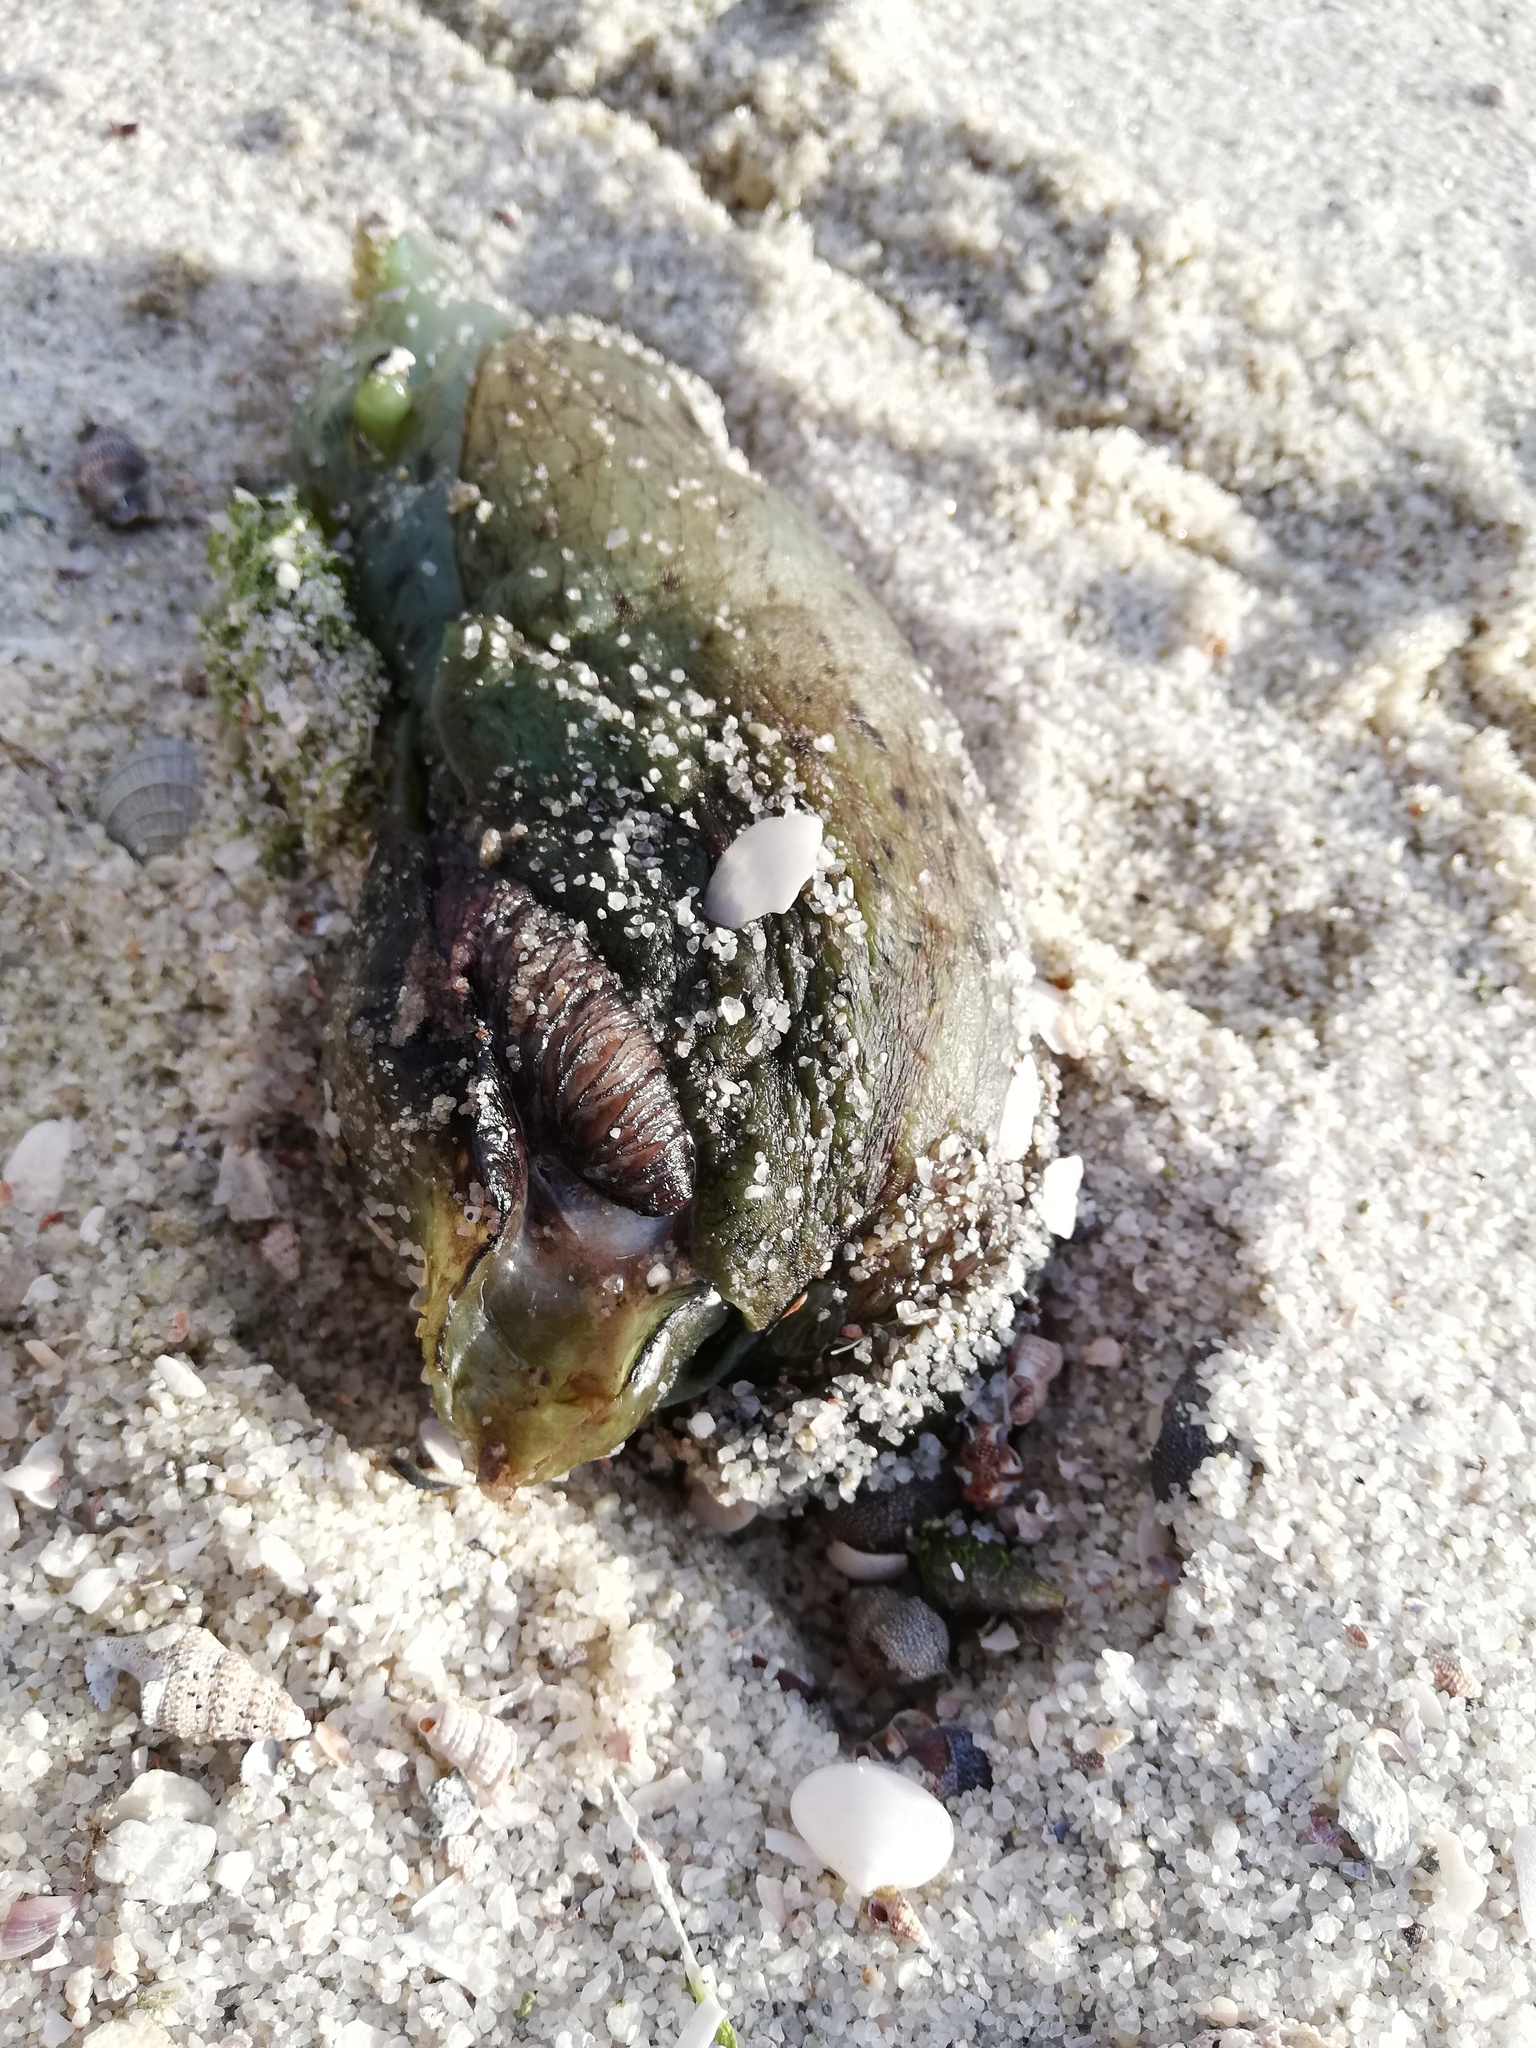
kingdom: Animalia
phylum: Mollusca
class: Gastropoda
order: Aplysiida
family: Aplysiidae
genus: Aplysia
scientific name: Aplysia californica
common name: California seahare
